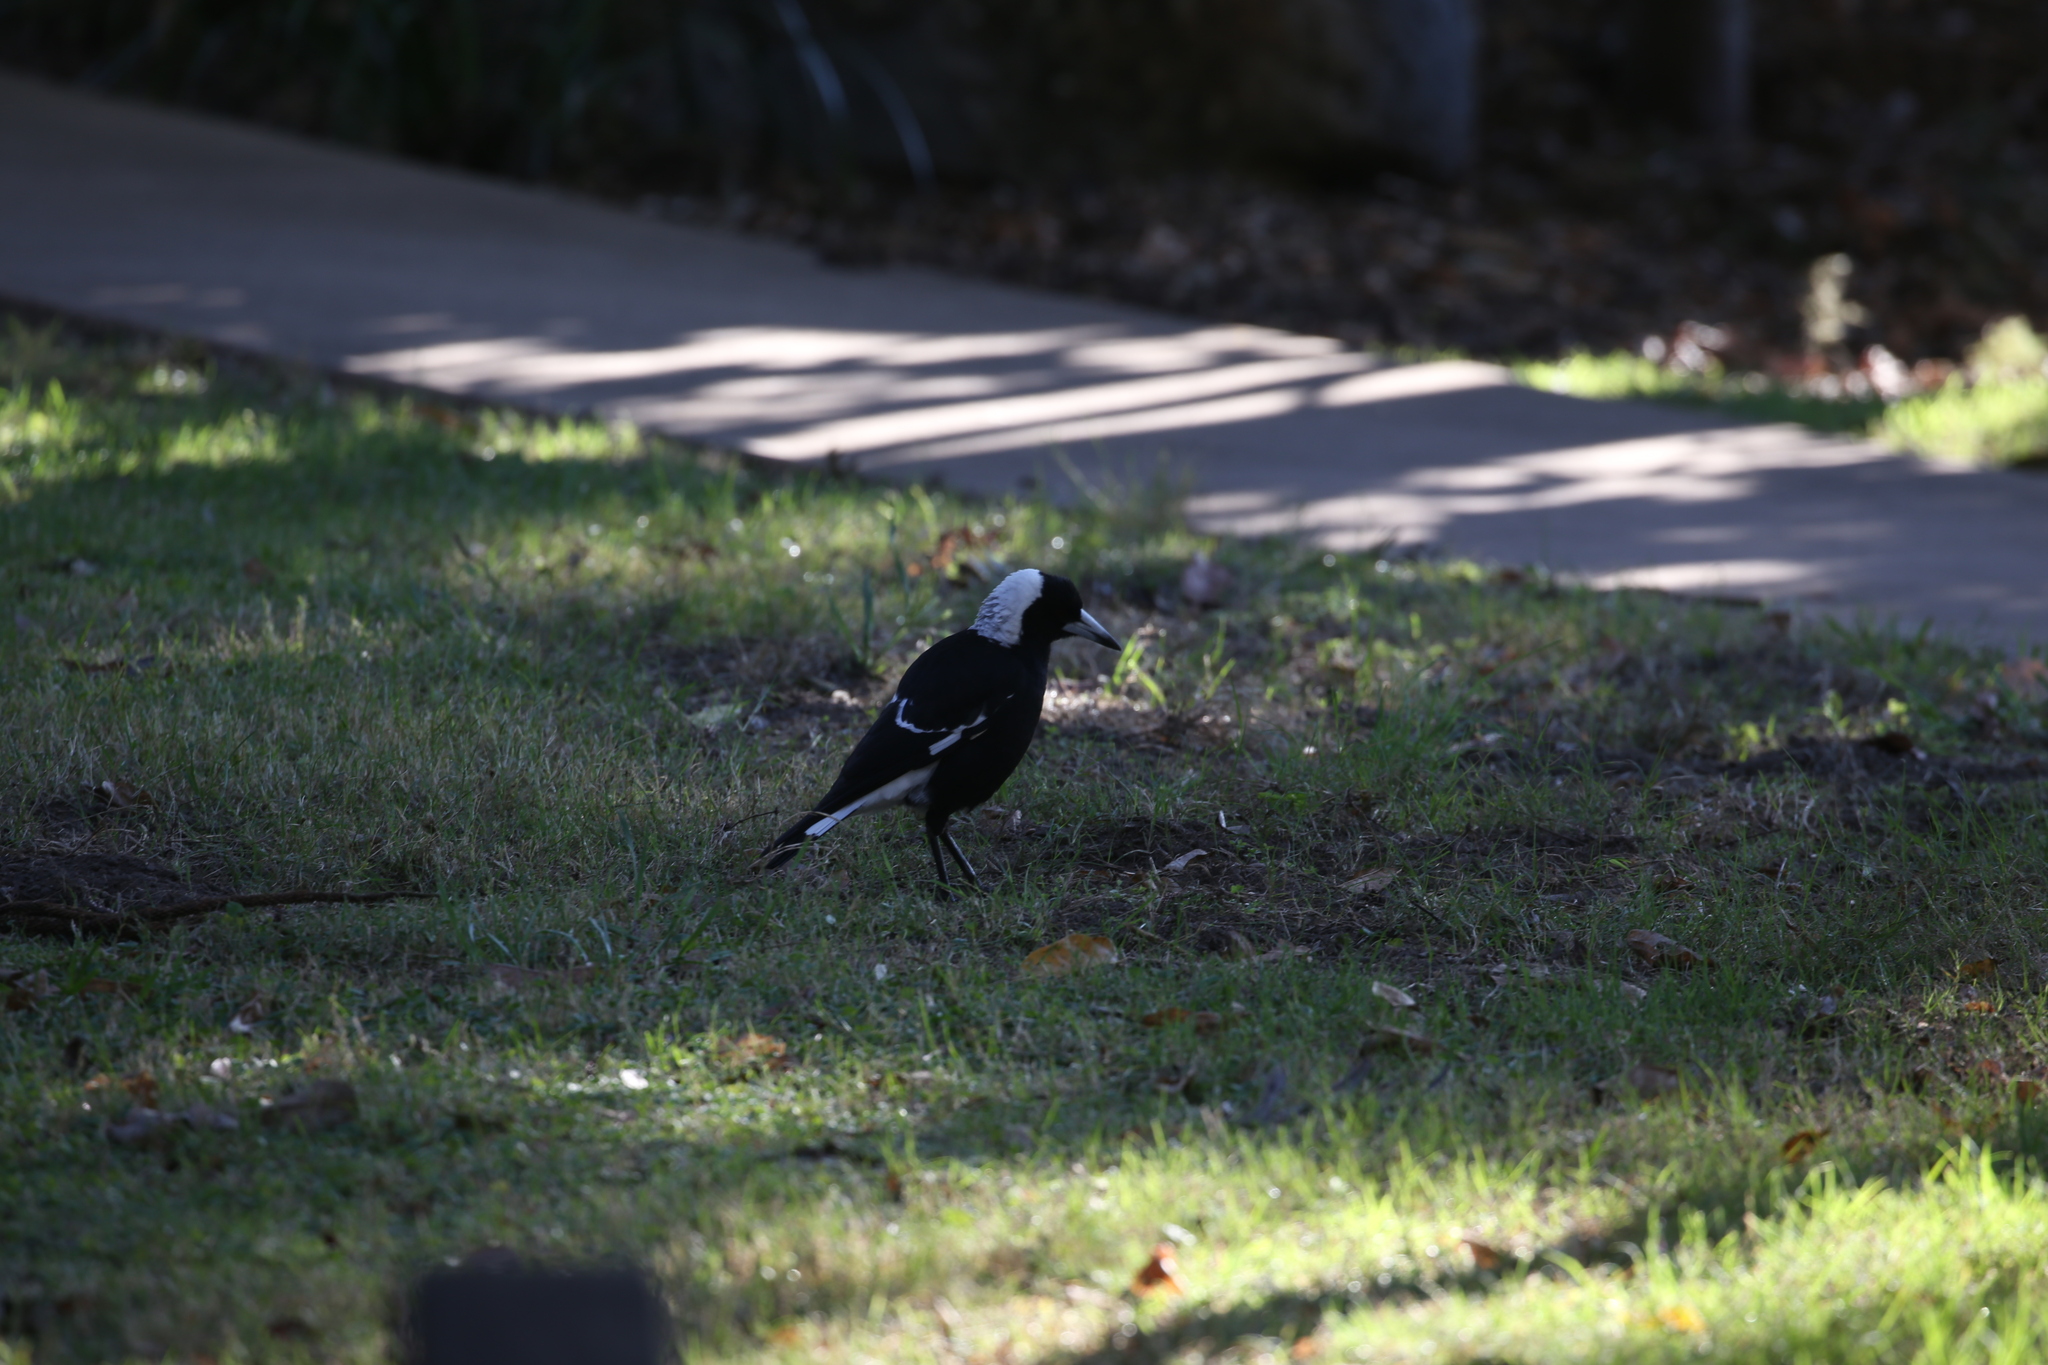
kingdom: Animalia
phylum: Chordata
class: Aves
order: Passeriformes
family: Cracticidae
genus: Gymnorhina
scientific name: Gymnorhina tibicen
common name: Australian magpie
